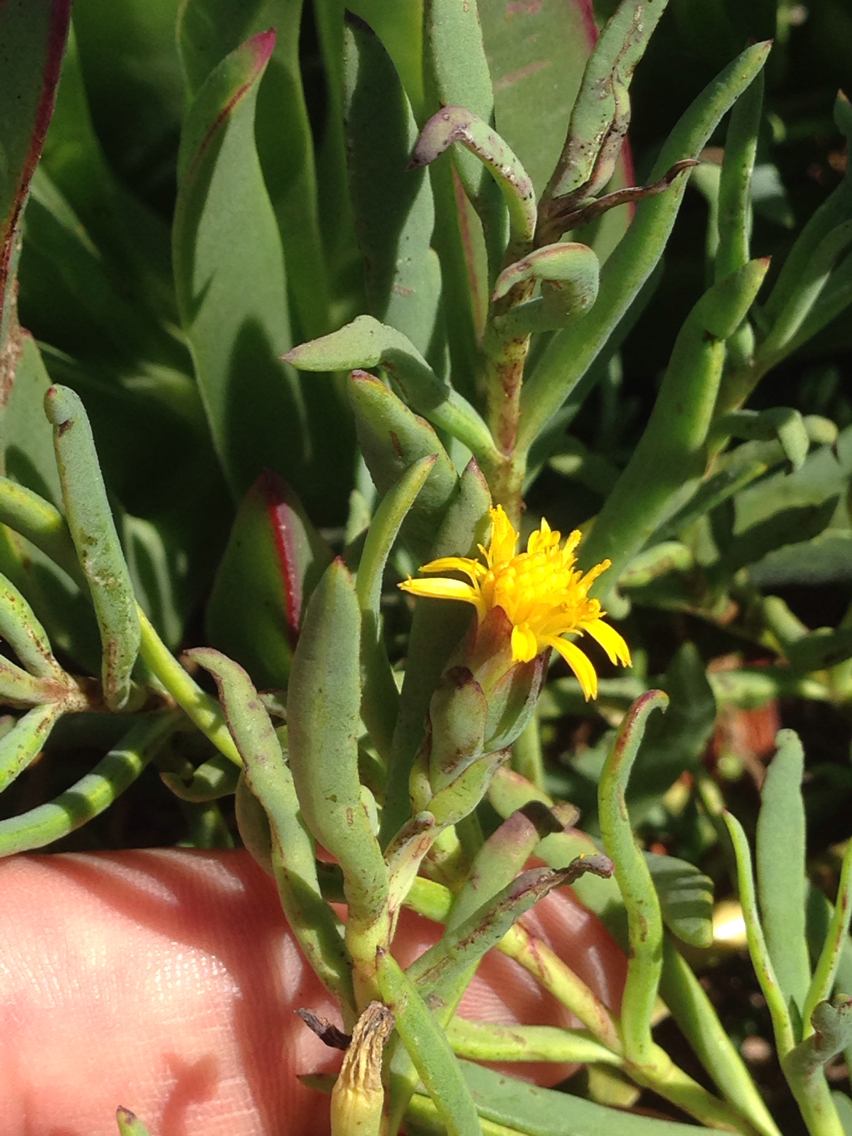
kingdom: Plantae
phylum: Tracheophyta
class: Magnoliopsida
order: Asterales
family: Asteraceae
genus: Jaumea
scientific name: Jaumea carnosa
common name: Fleshy jaumea
